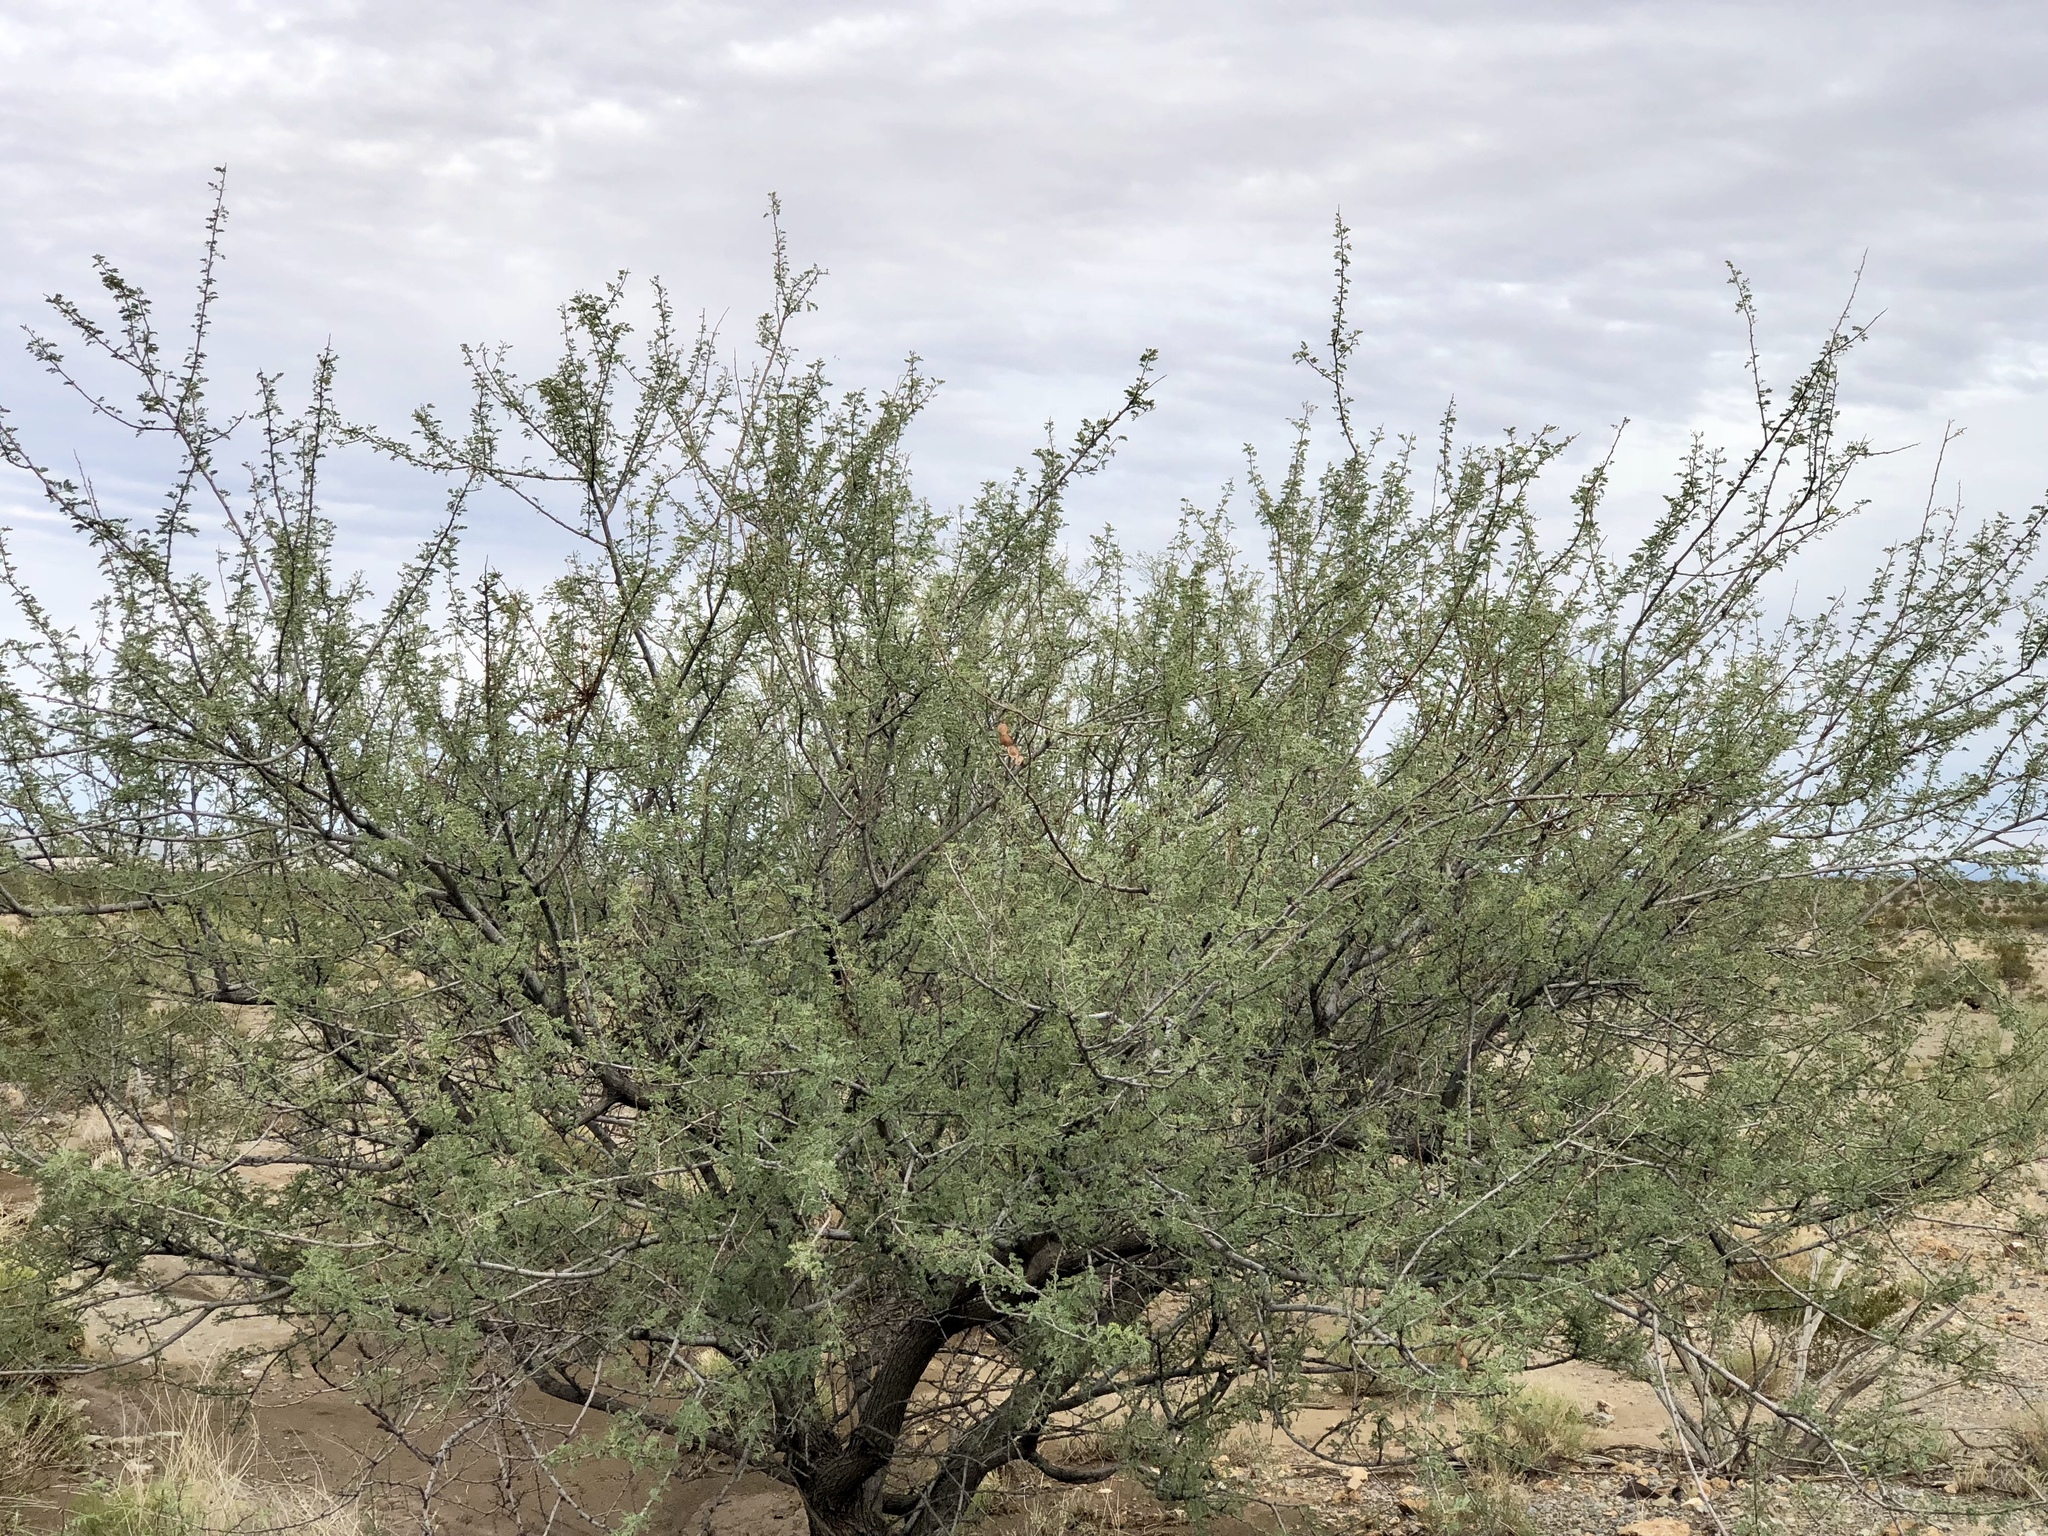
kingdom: Plantae
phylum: Tracheophyta
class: Magnoliopsida
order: Fabales
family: Fabaceae
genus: Senegalia
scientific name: Senegalia greggii
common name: Texas-mimosa
